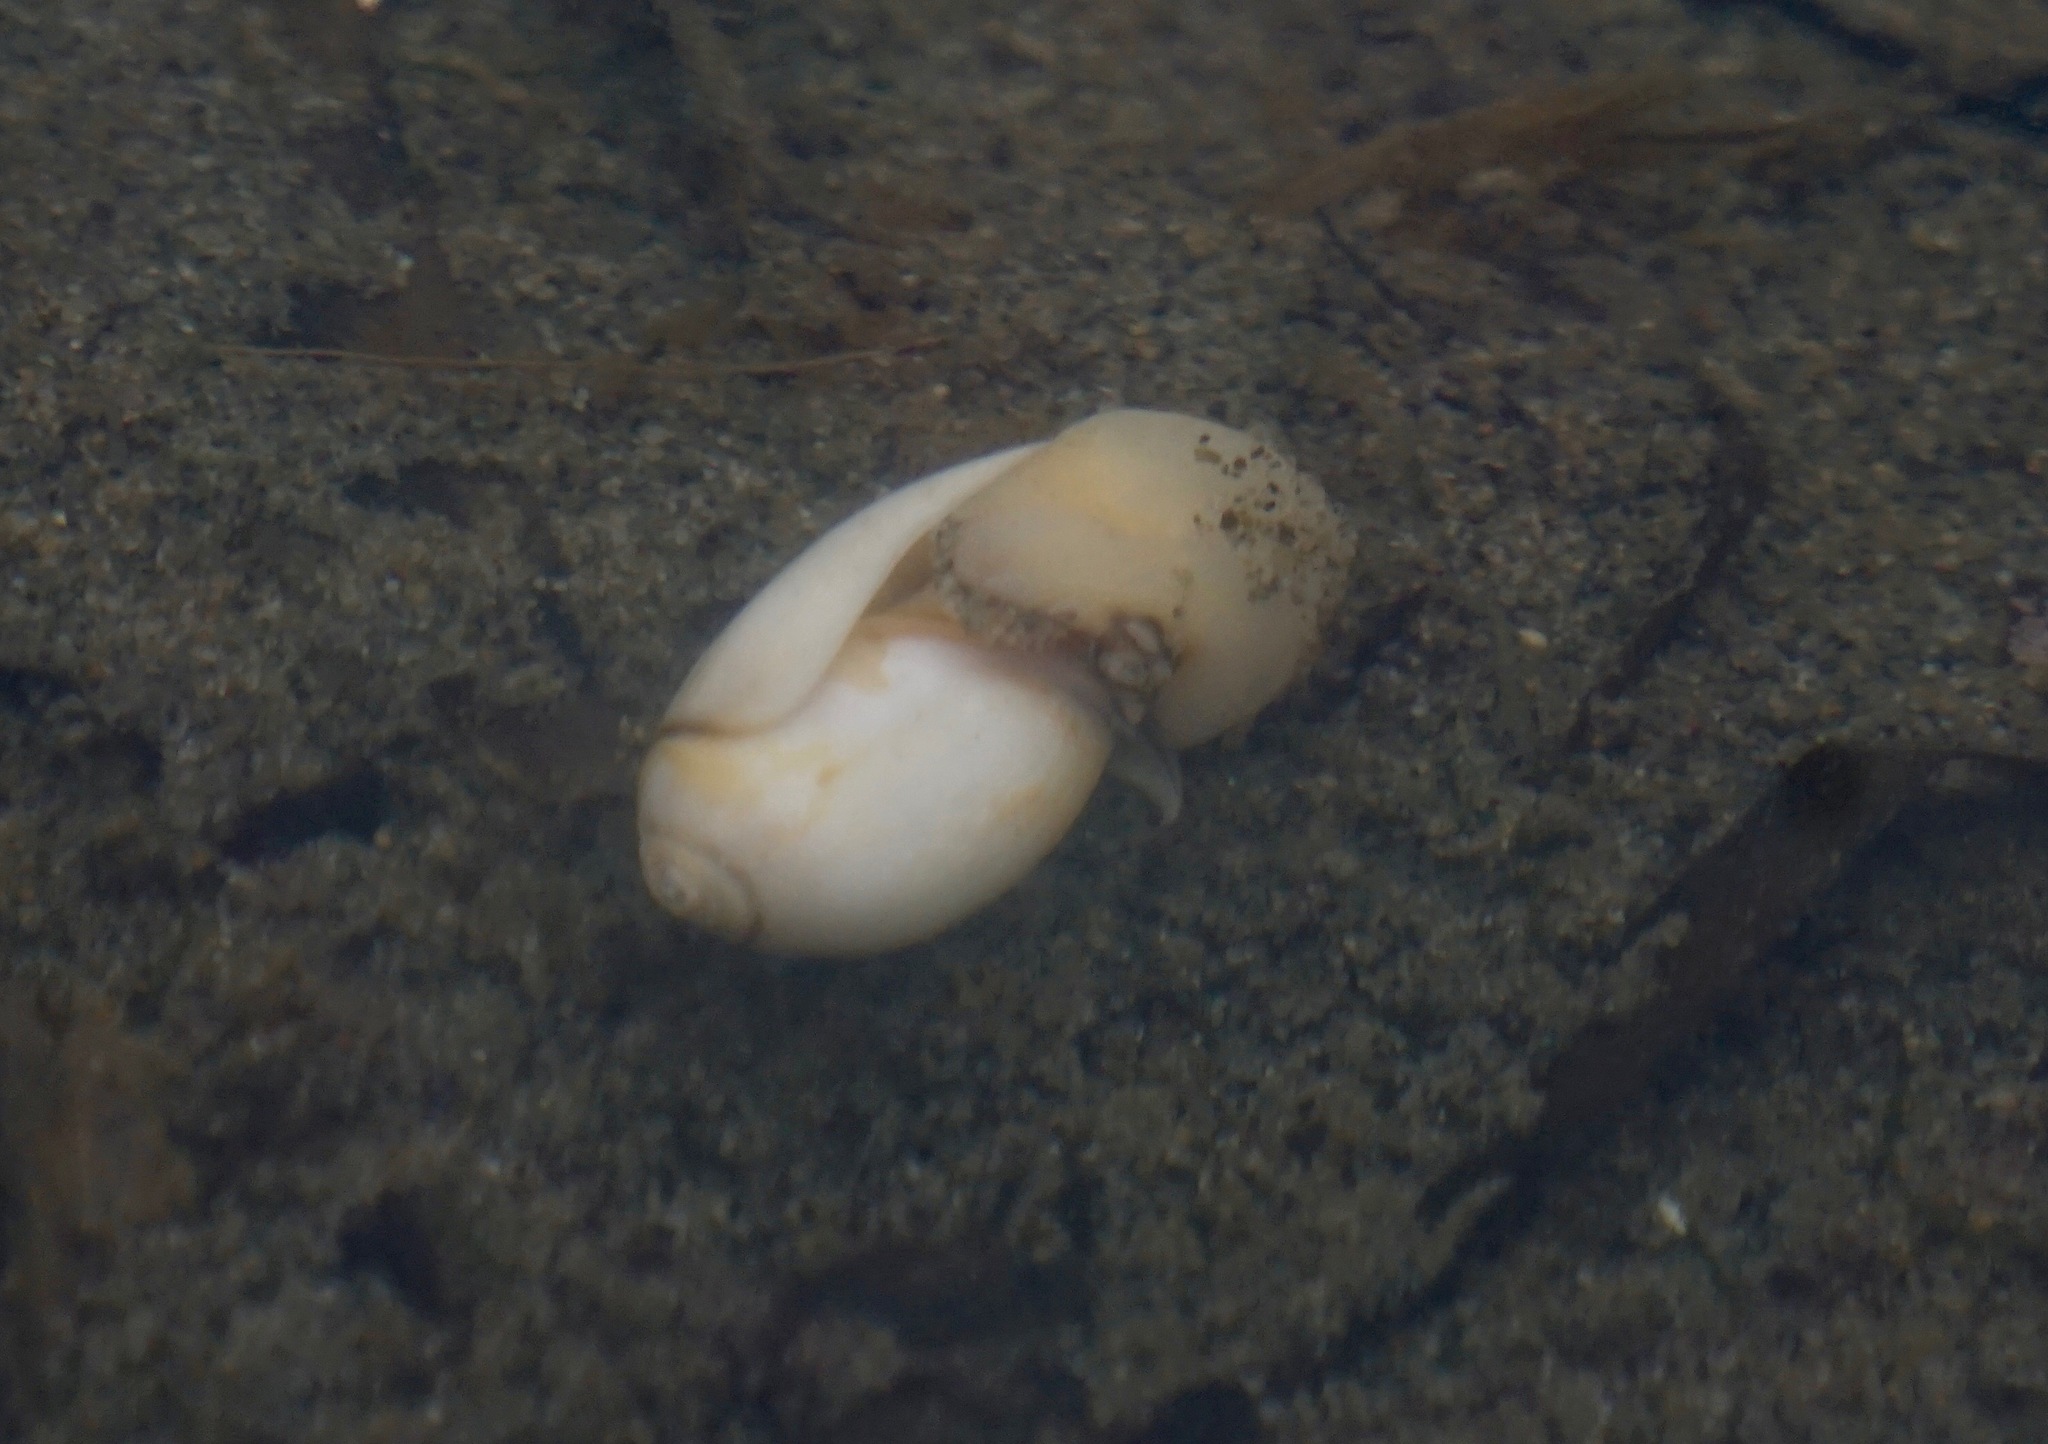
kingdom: Animalia
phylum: Mollusca
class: Gastropoda
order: Neogastropoda
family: Olividae
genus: Callianax
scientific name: Callianax biplicata
